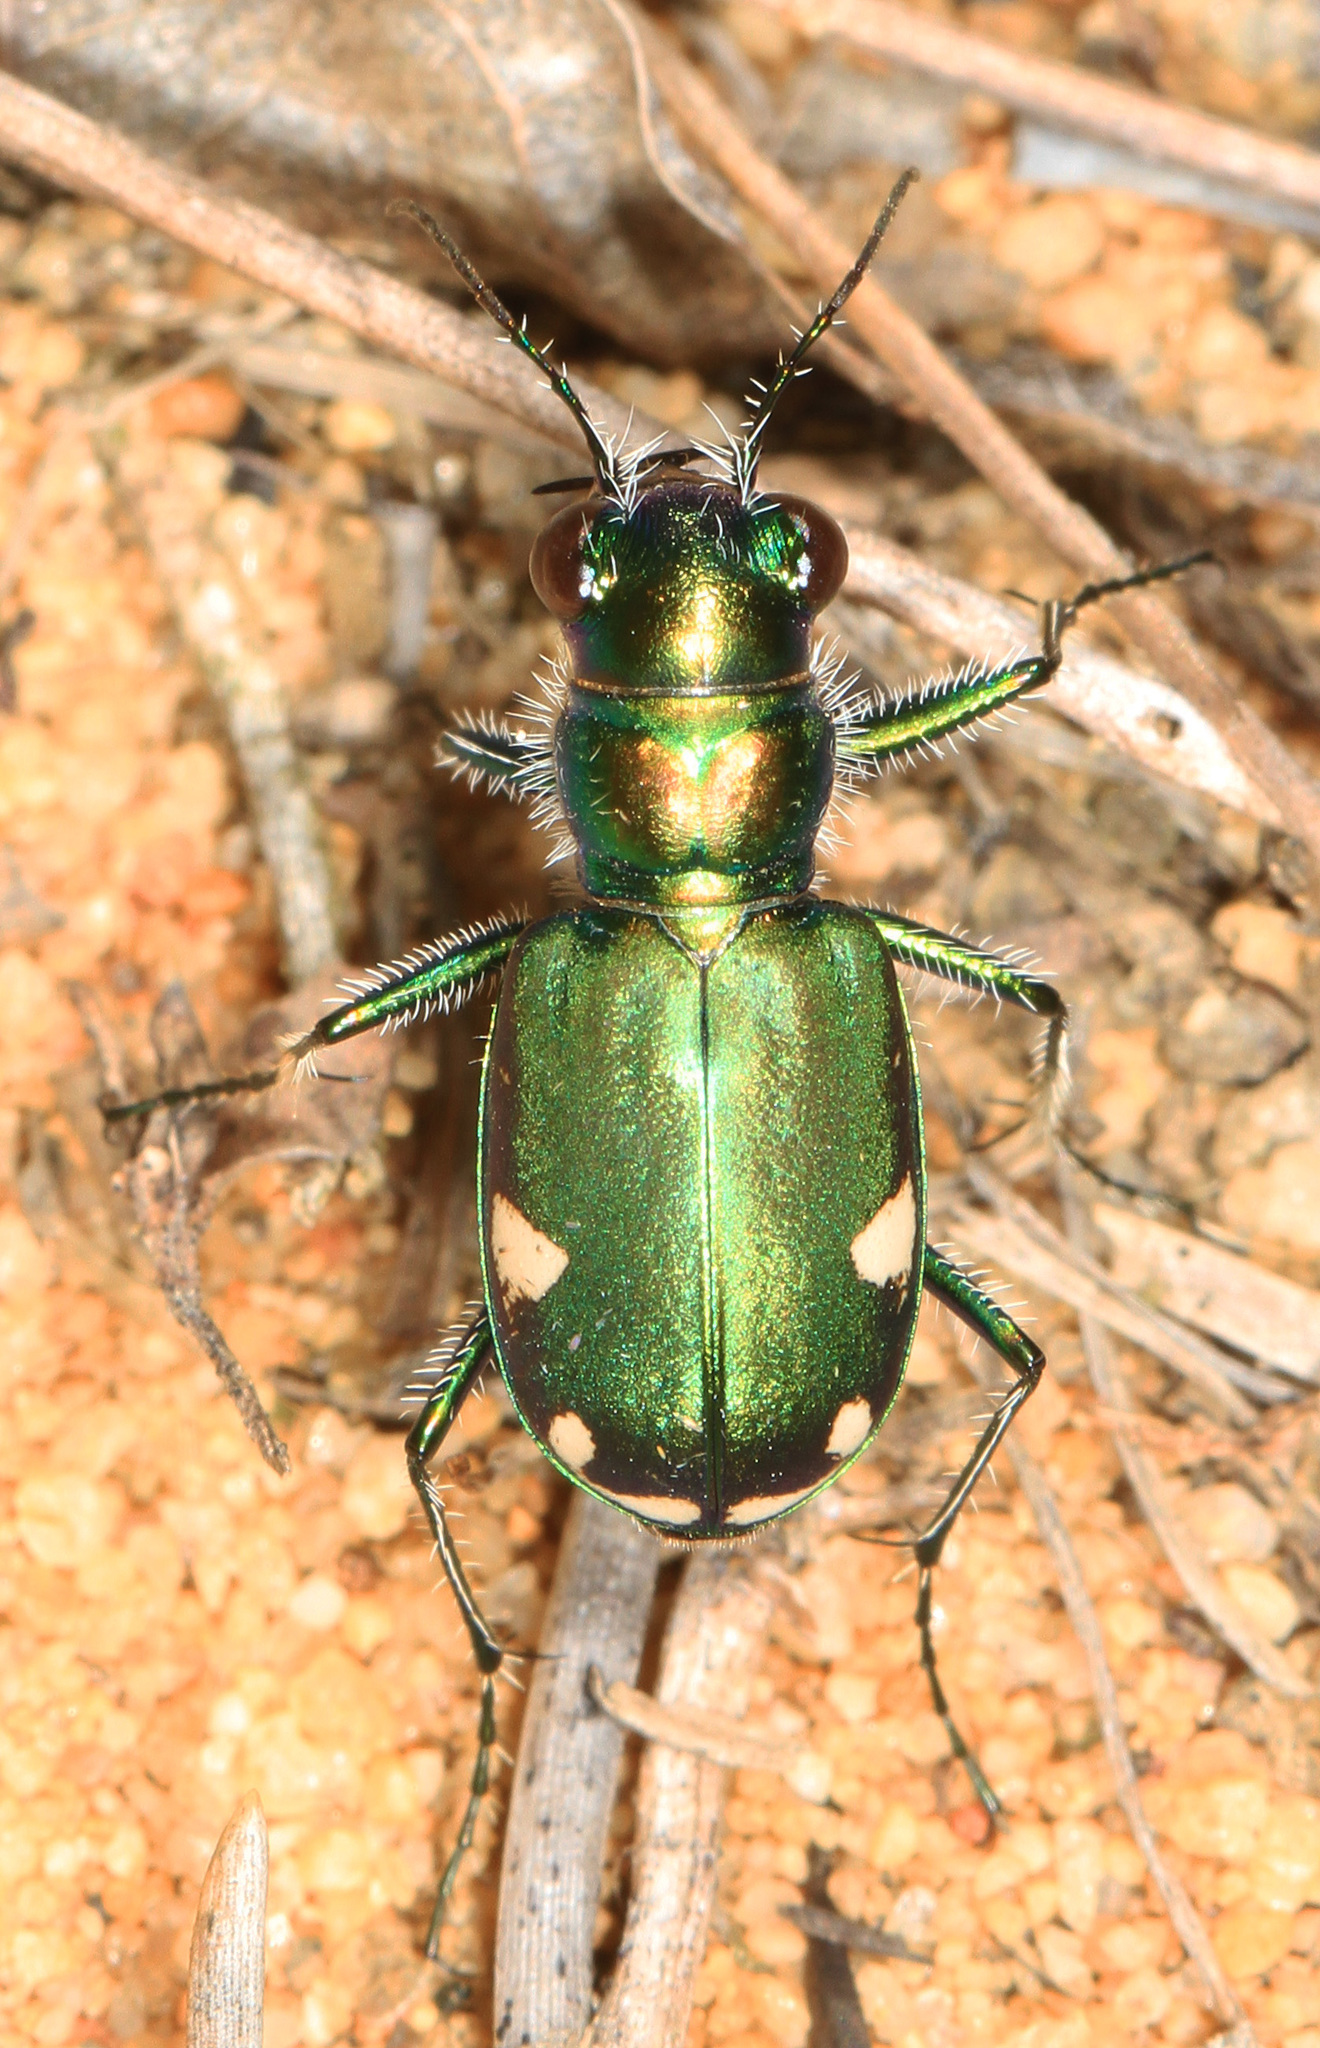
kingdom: Animalia
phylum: Arthropoda
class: Insecta
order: Coleoptera
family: Carabidae
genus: Cicindela
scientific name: Cicindela scutellaris
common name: Festive tiger beetle
